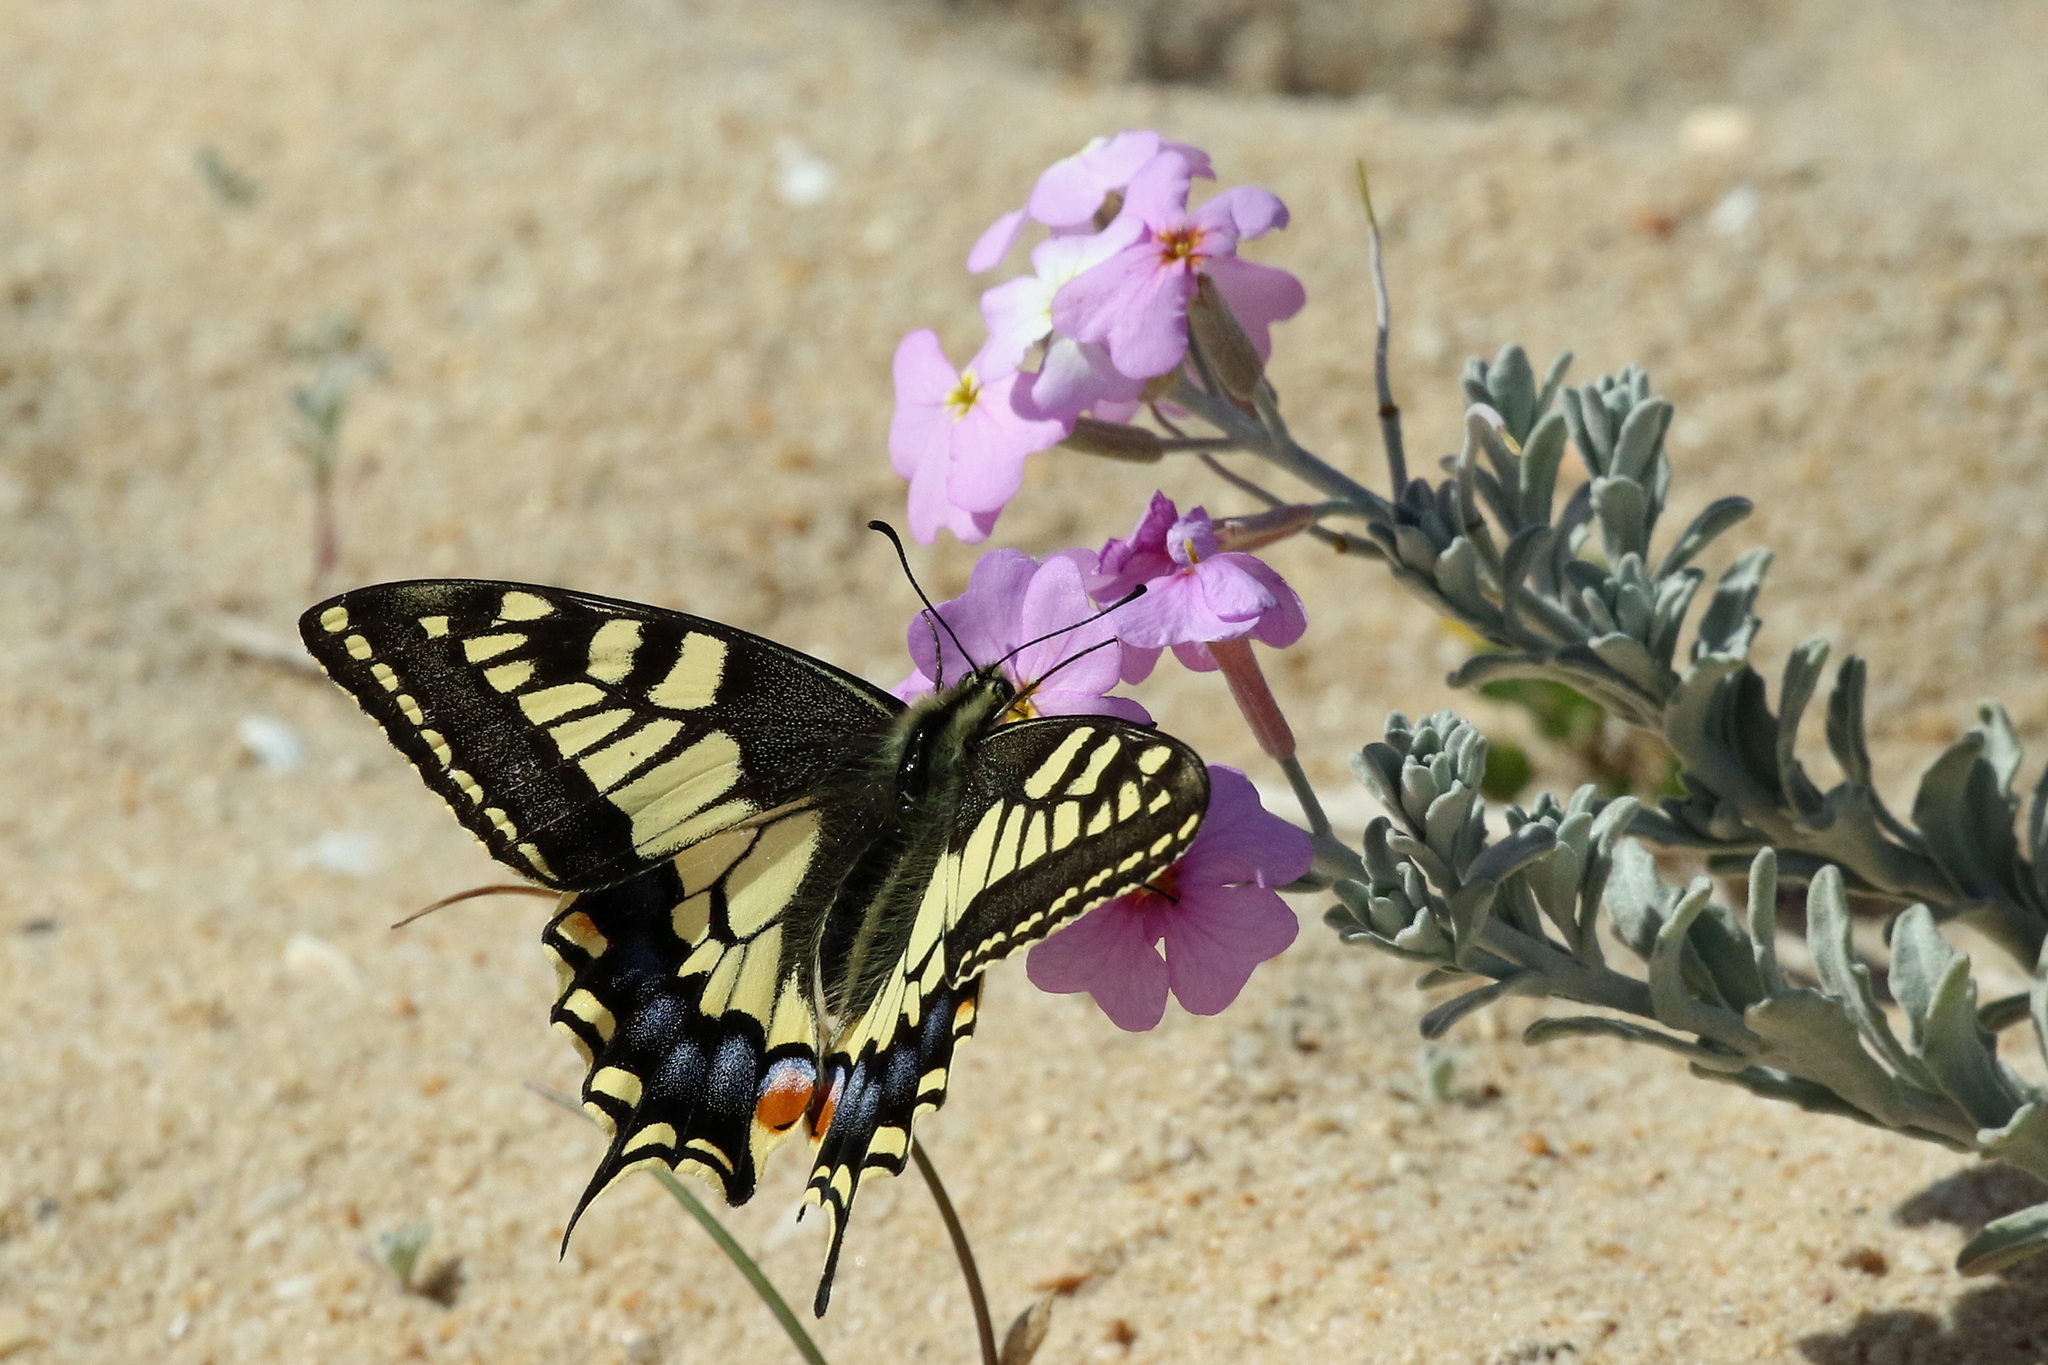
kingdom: Animalia
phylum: Arthropoda
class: Insecta
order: Lepidoptera
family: Papilionidae
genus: Papilio
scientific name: Papilio machaon
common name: Swallowtail
